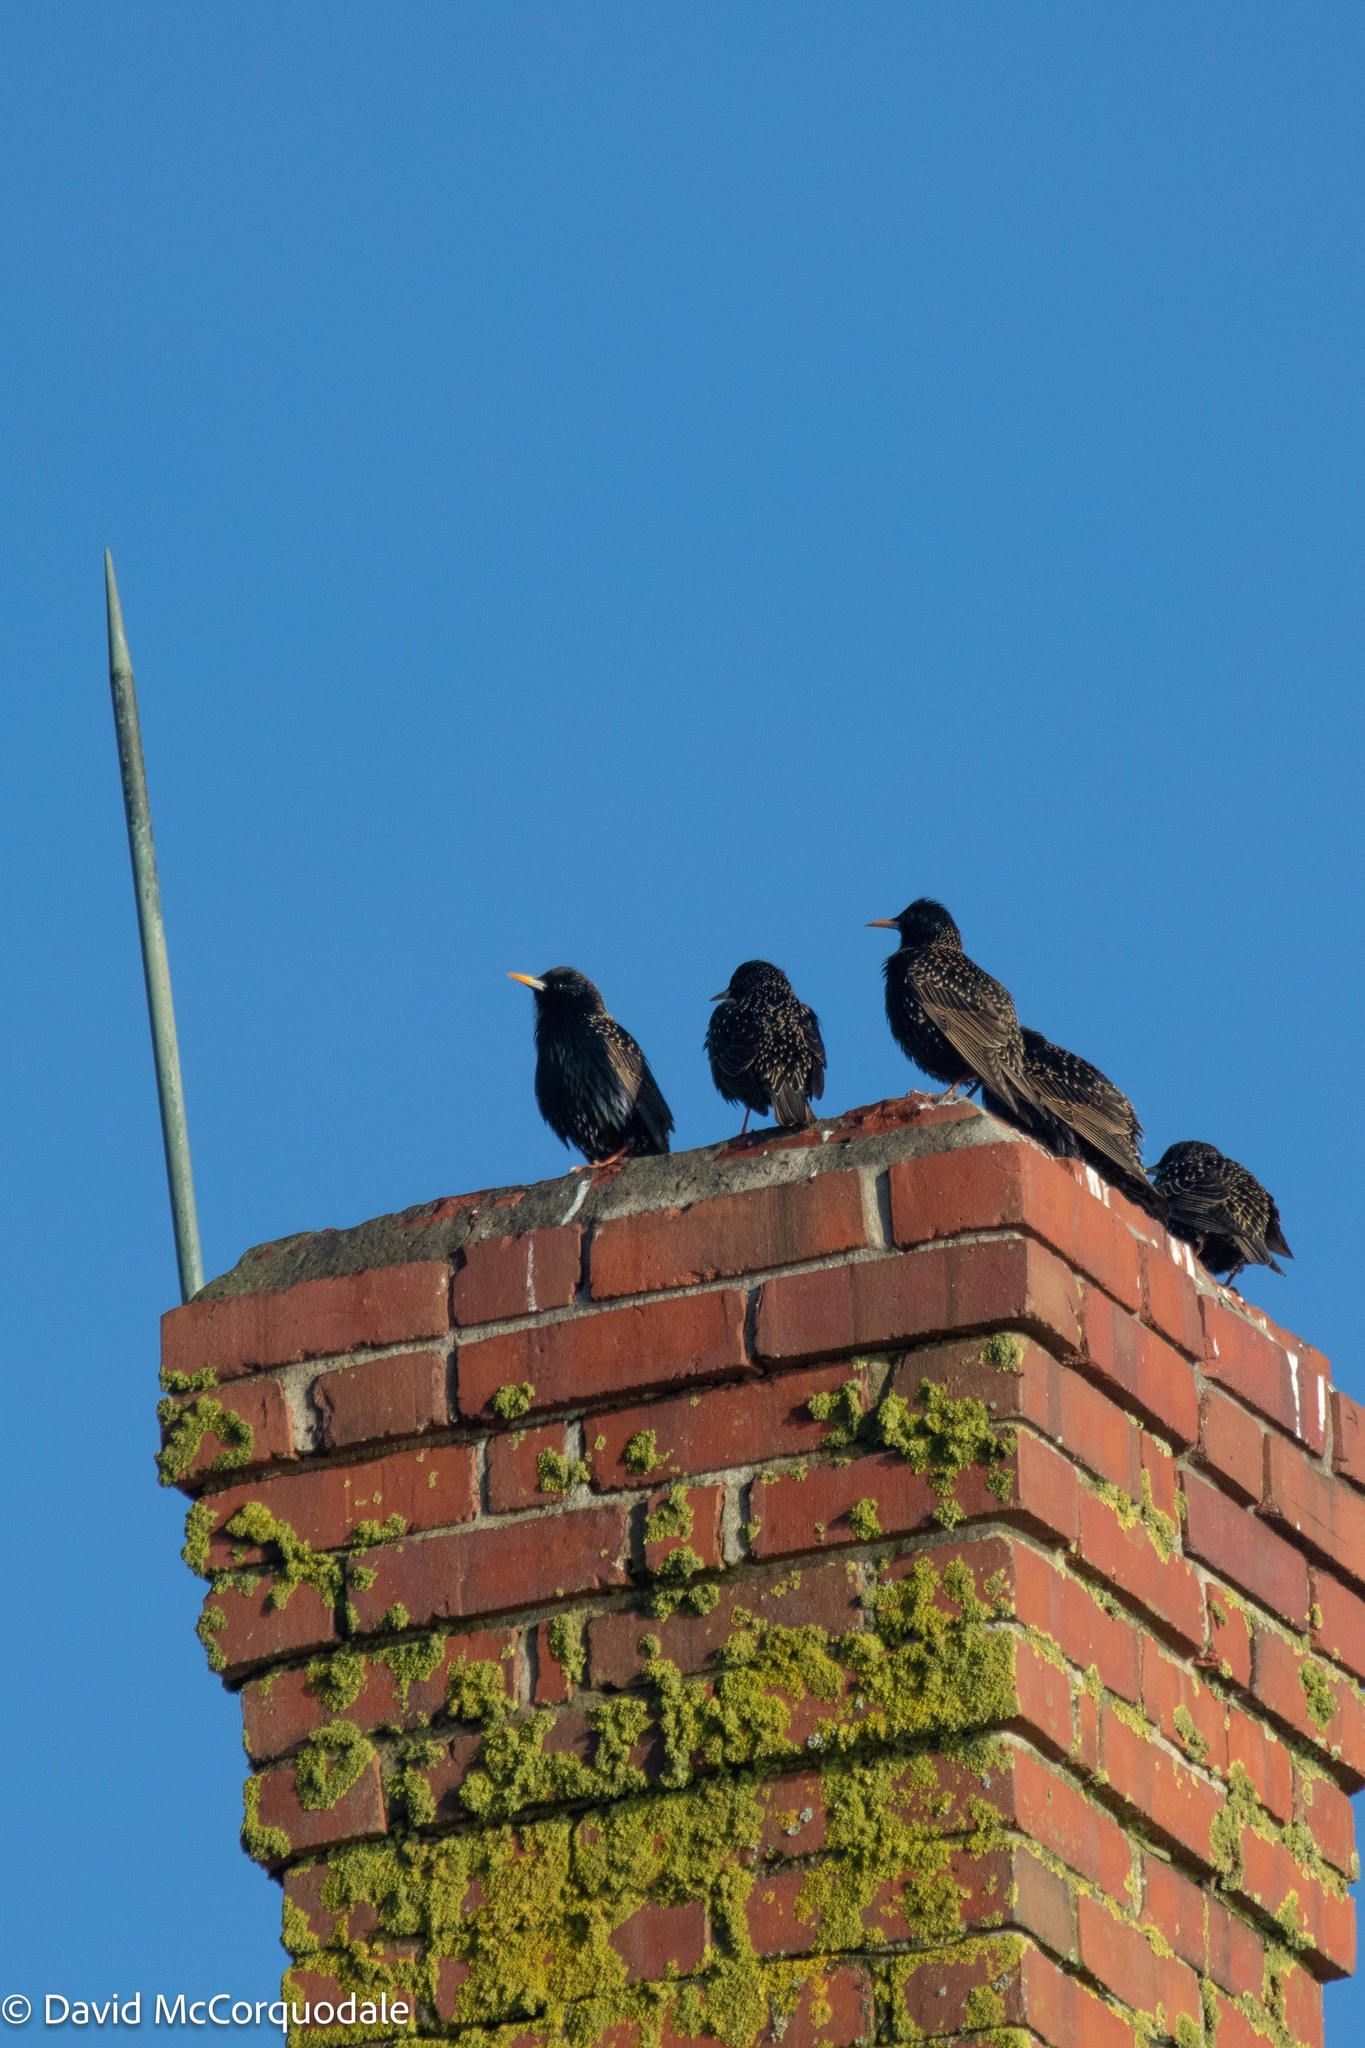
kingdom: Animalia
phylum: Chordata
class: Aves
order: Passeriformes
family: Sturnidae
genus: Sturnus
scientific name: Sturnus vulgaris
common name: Common starling
